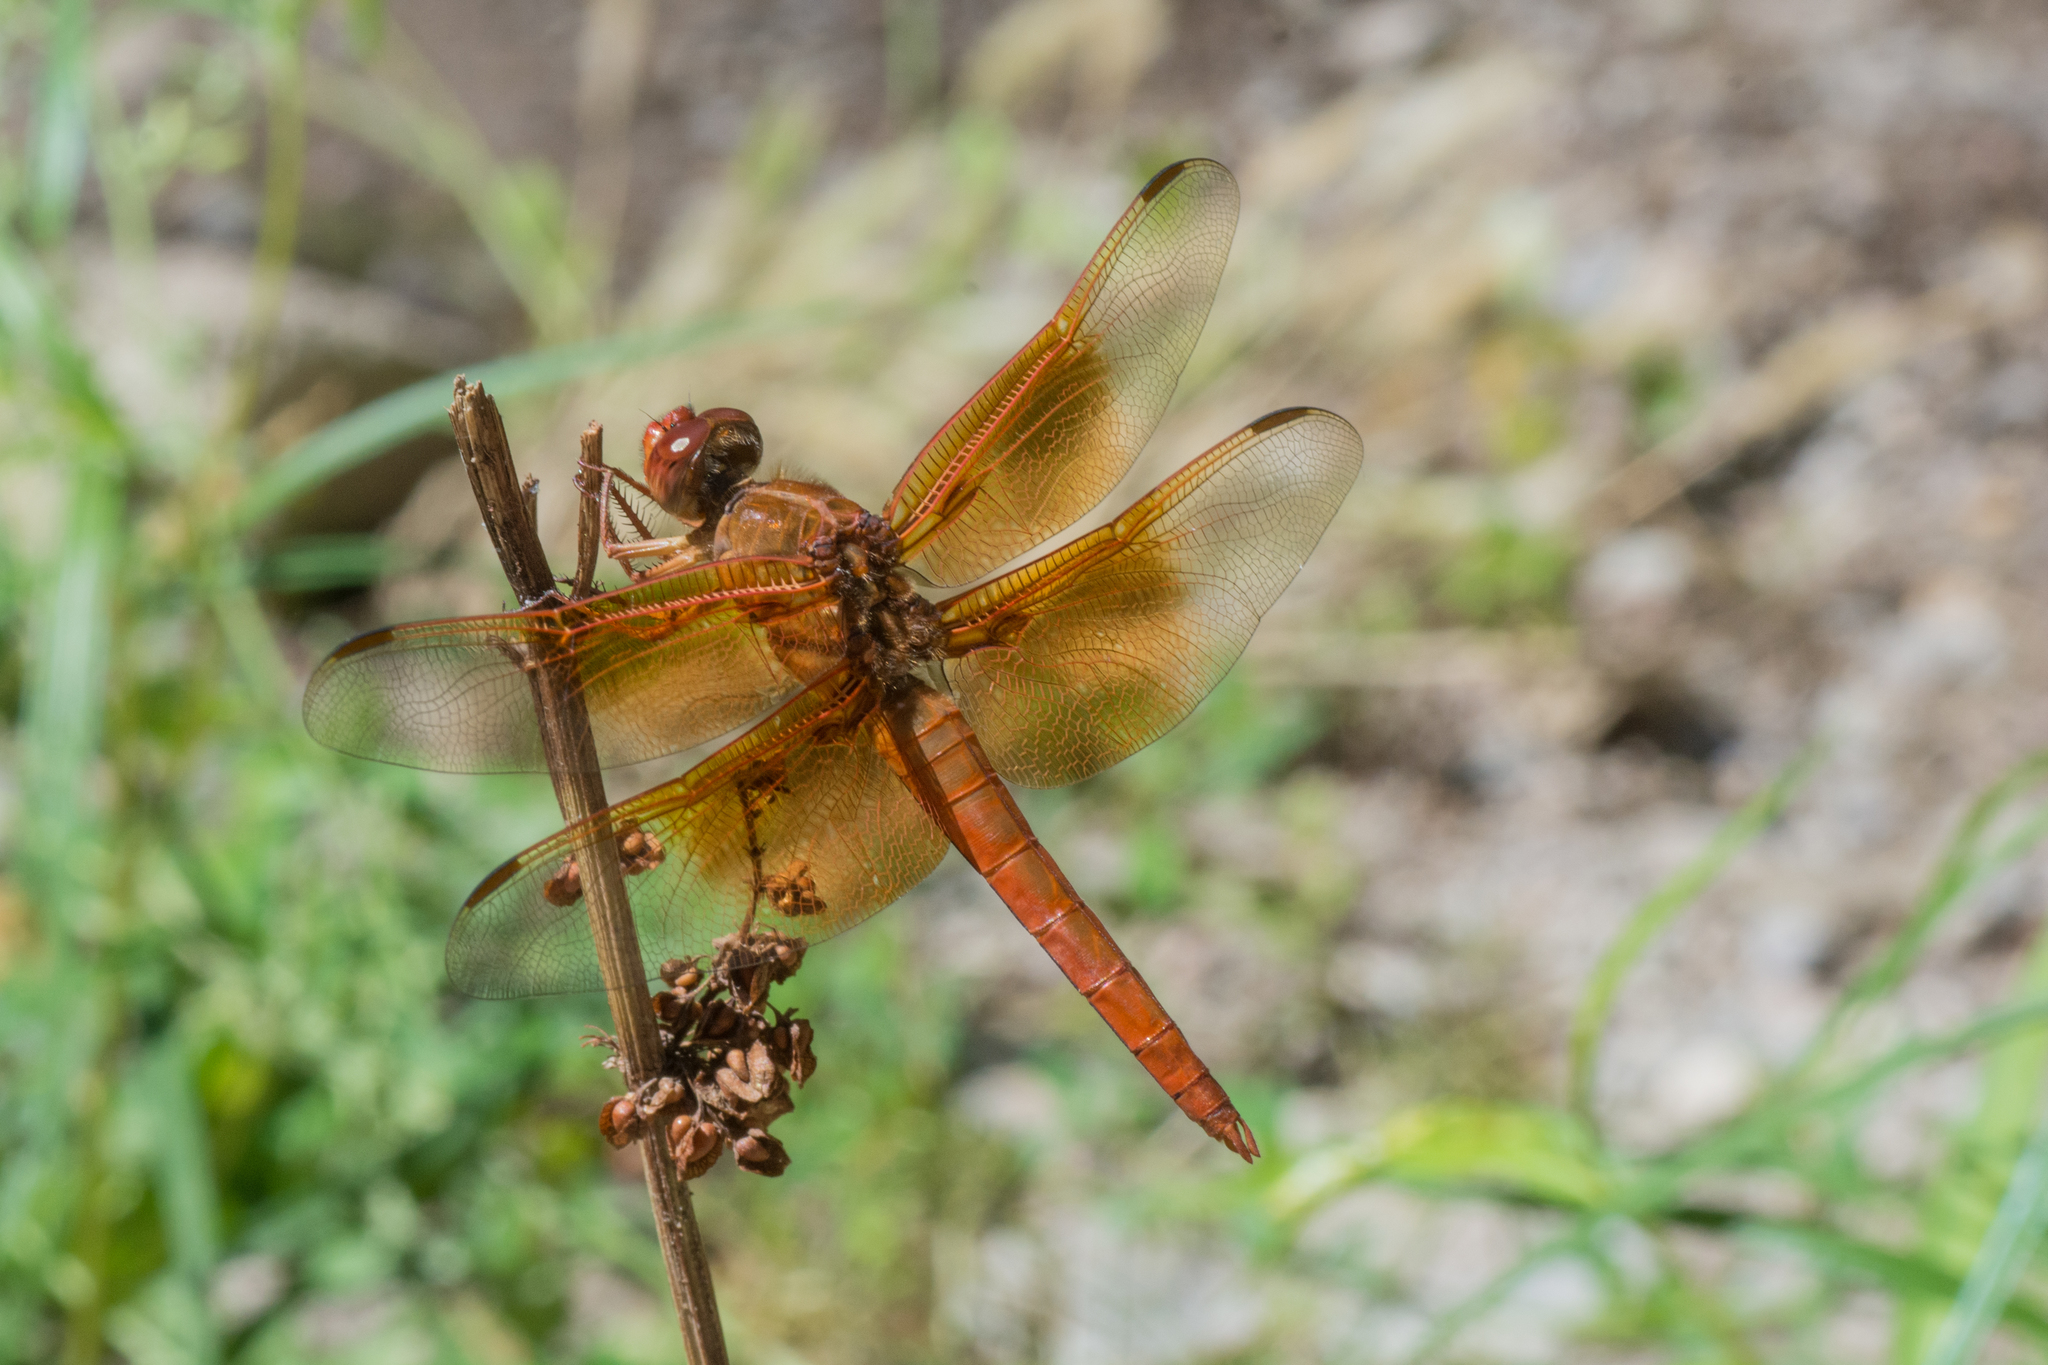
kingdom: Animalia
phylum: Arthropoda
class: Insecta
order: Odonata
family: Libellulidae
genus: Libellula
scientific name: Libellula saturata
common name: Flame skimmer
